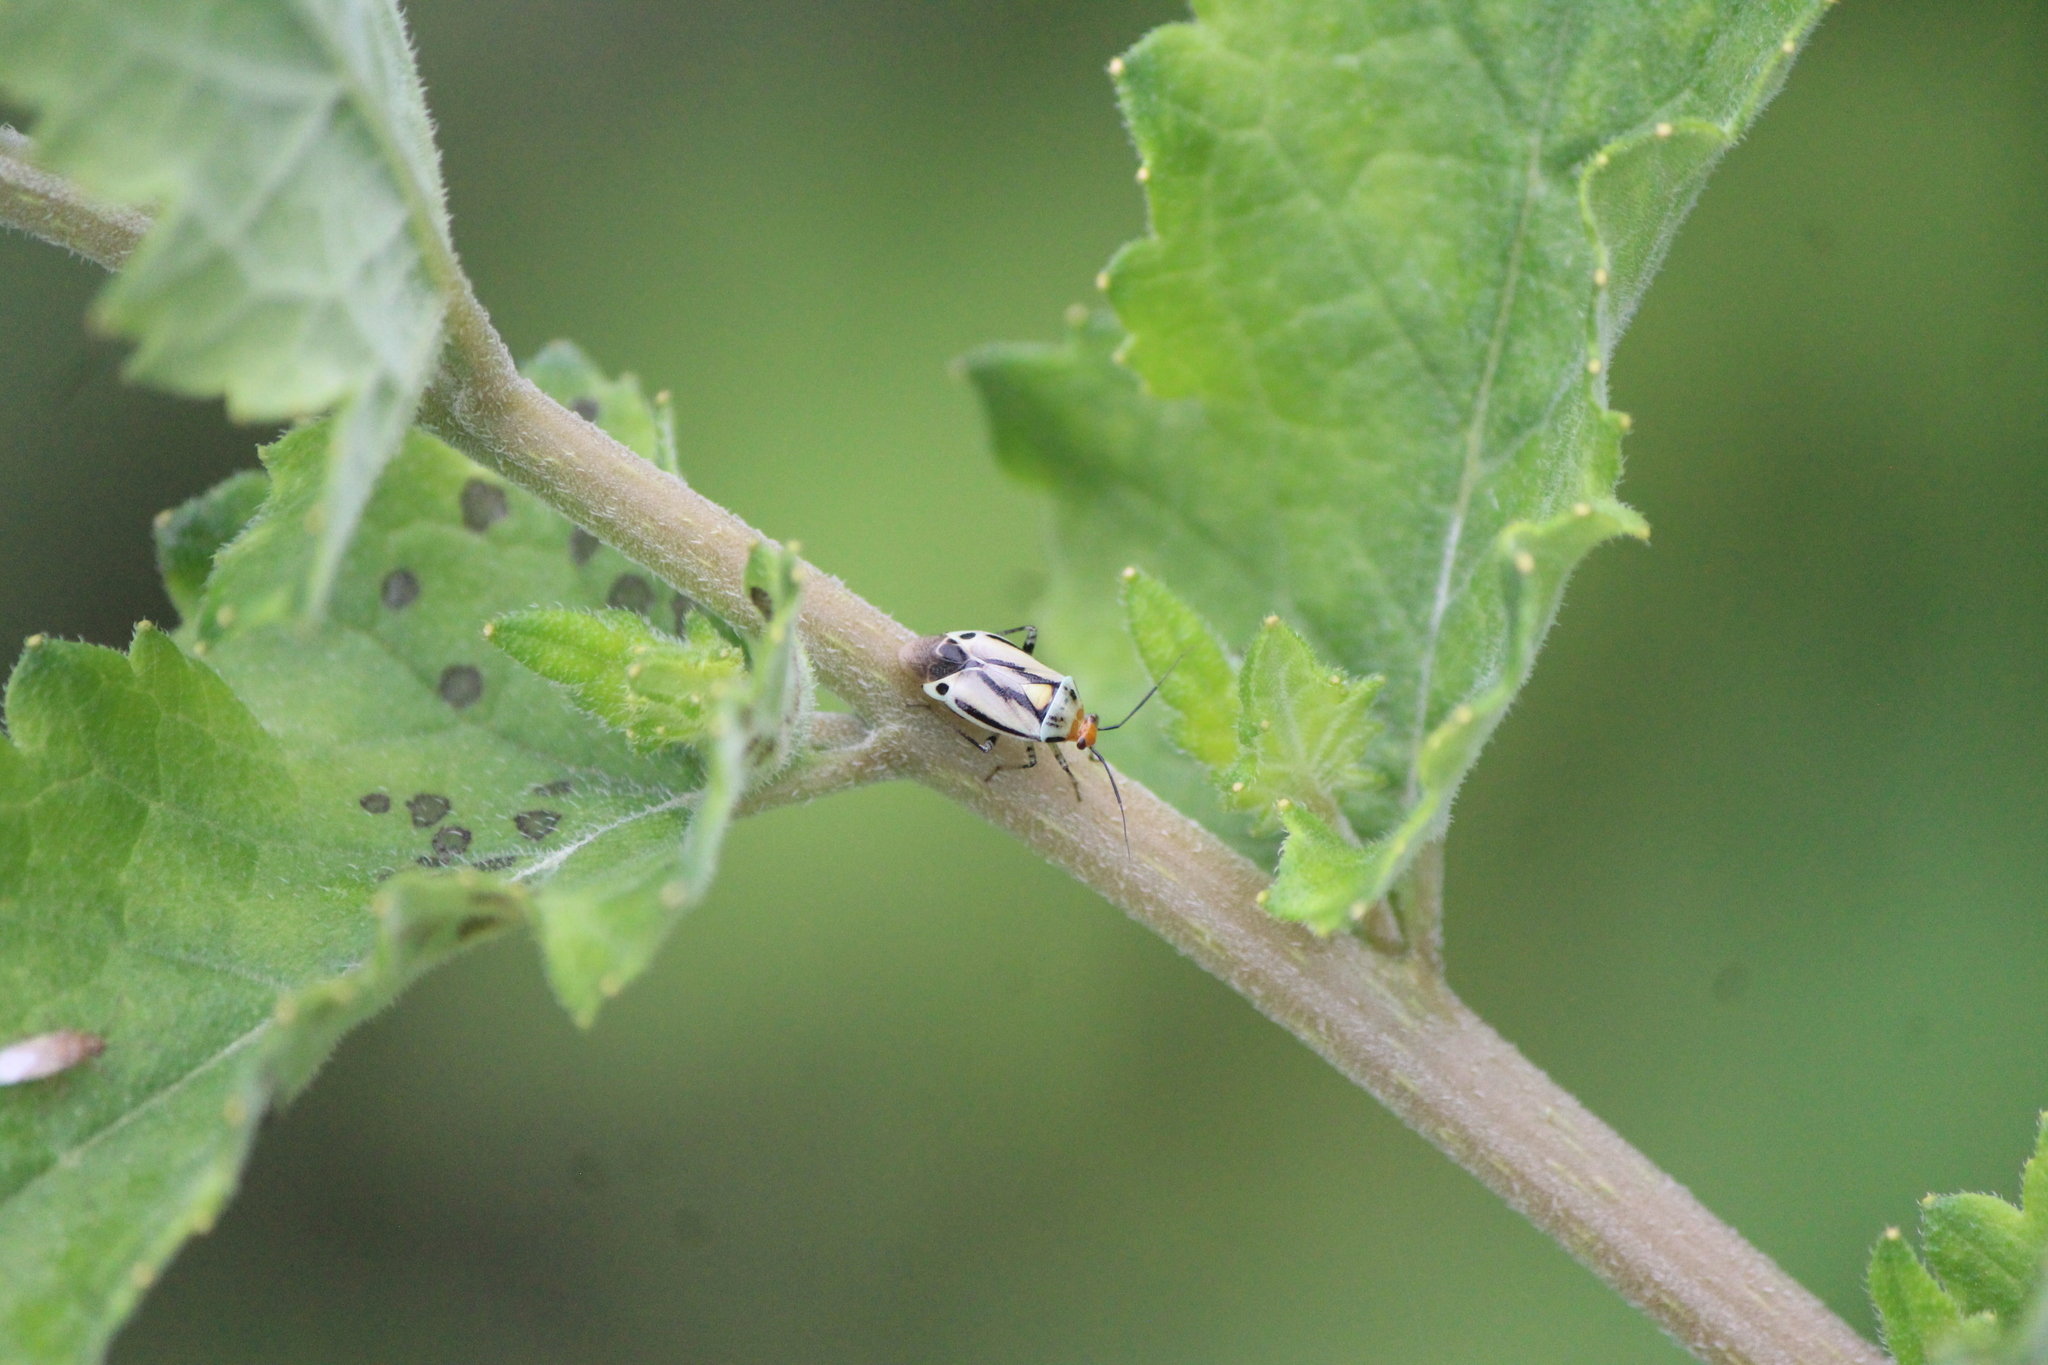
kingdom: Animalia
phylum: Arthropoda
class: Insecta
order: Hemiptera
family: Miridae
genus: Poecilocapsus
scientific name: Poecilocapsus nigriger
